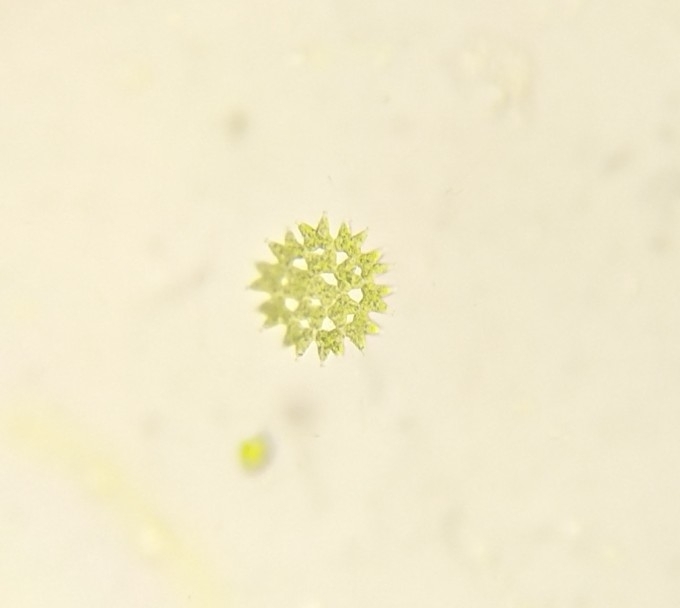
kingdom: Plantae
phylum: Chlorophyta
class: Chlorophyceae
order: Sphaeropleales
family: Hydrodictyaceae
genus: Pediastrum
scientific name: Pediastrum duplex
